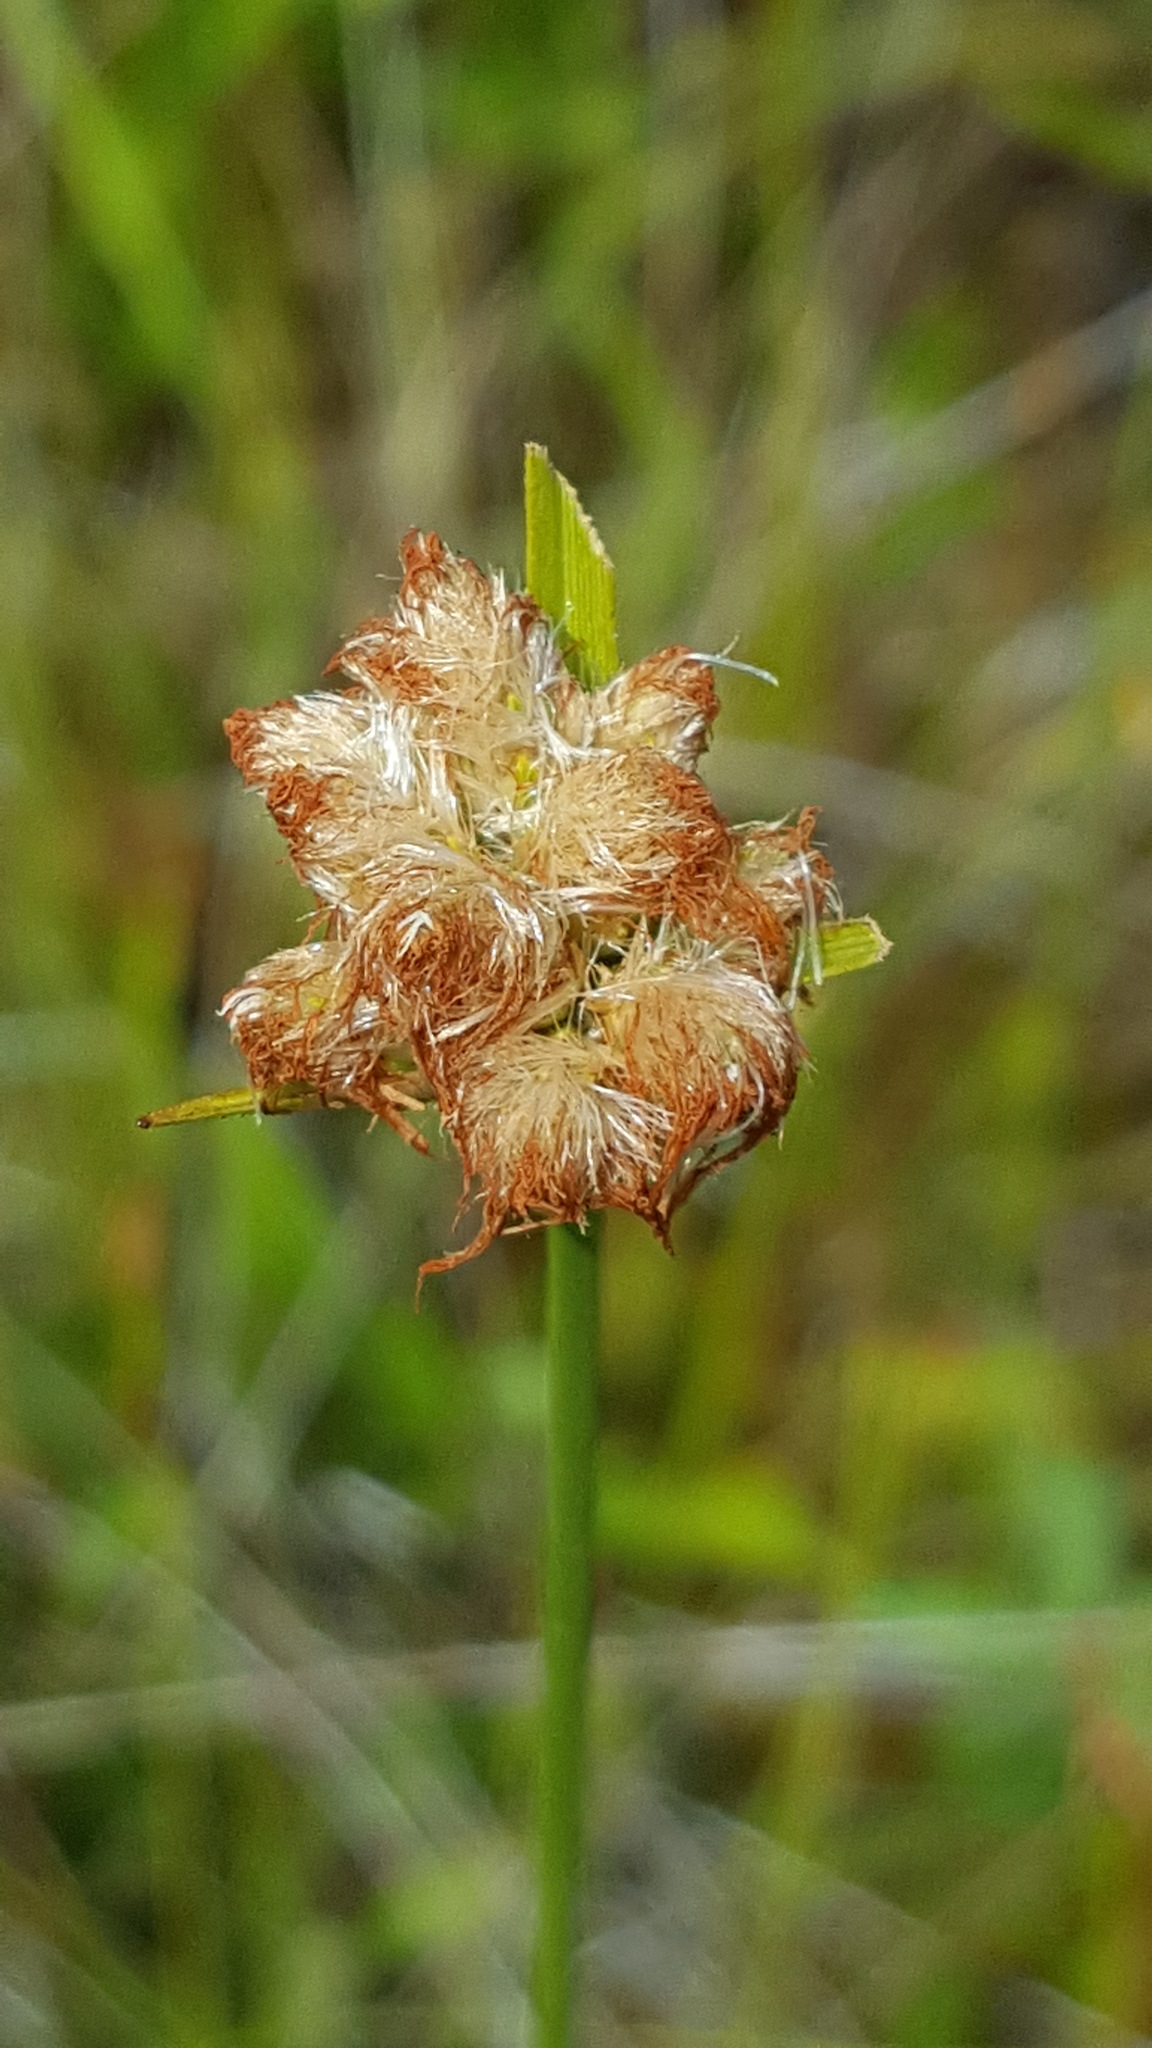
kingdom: Plantae
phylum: Tracheophyta
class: Liliopsida
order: Poales
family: Cyperaceae
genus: Eriophorum
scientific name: Eriophorum virginicum
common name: Tawny cottongrass
